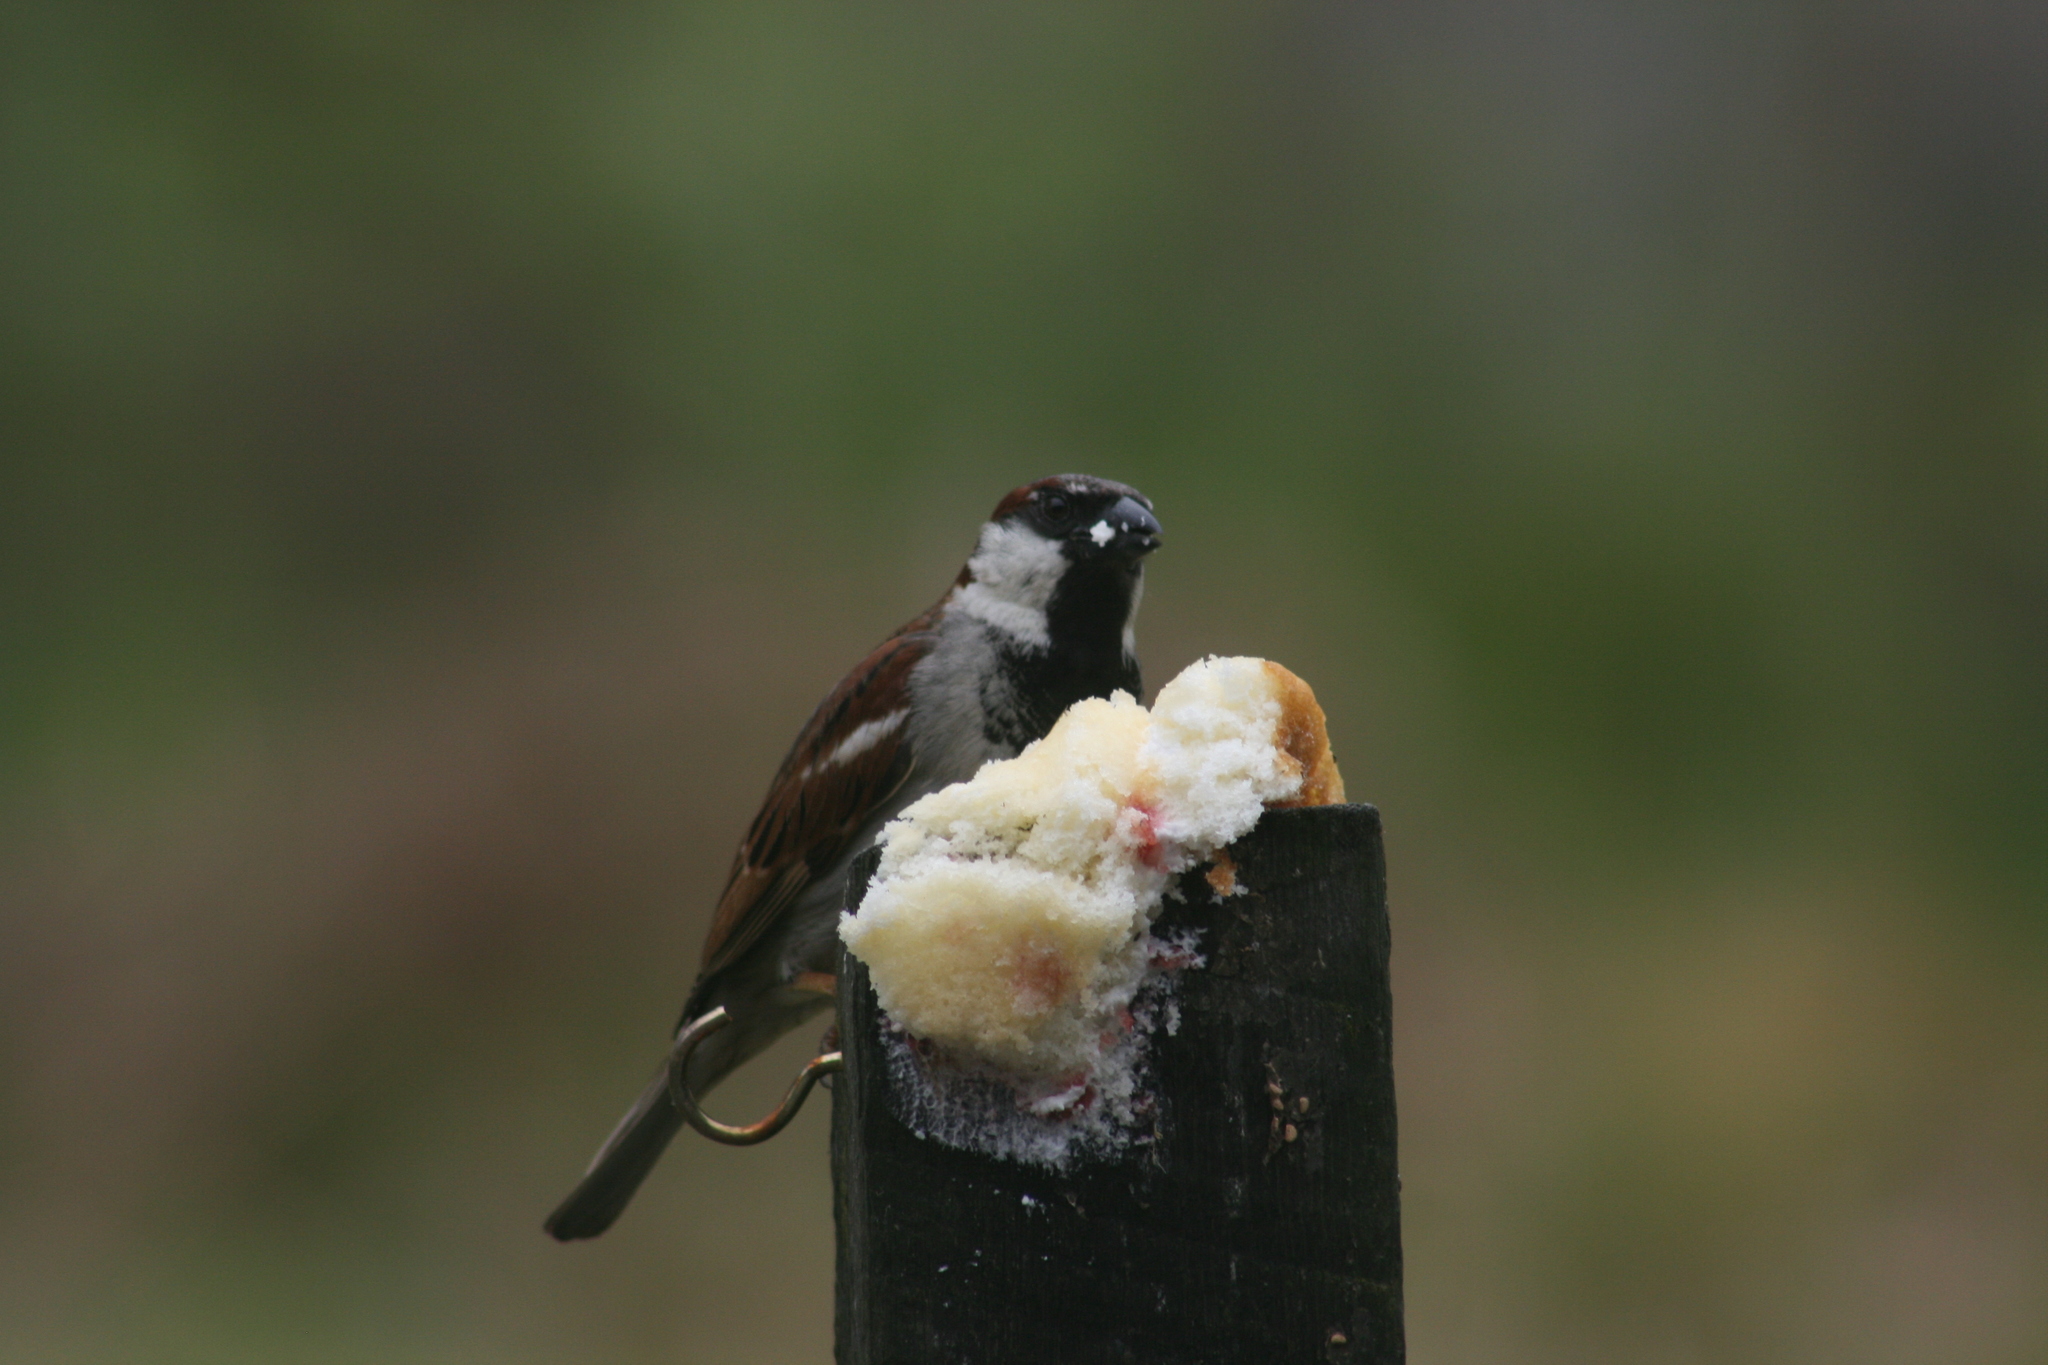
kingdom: Animalia
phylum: Chordata
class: Aves
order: Passeriformes
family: Passeridae
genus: Passer
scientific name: Passer domesticus
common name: House sparrow
